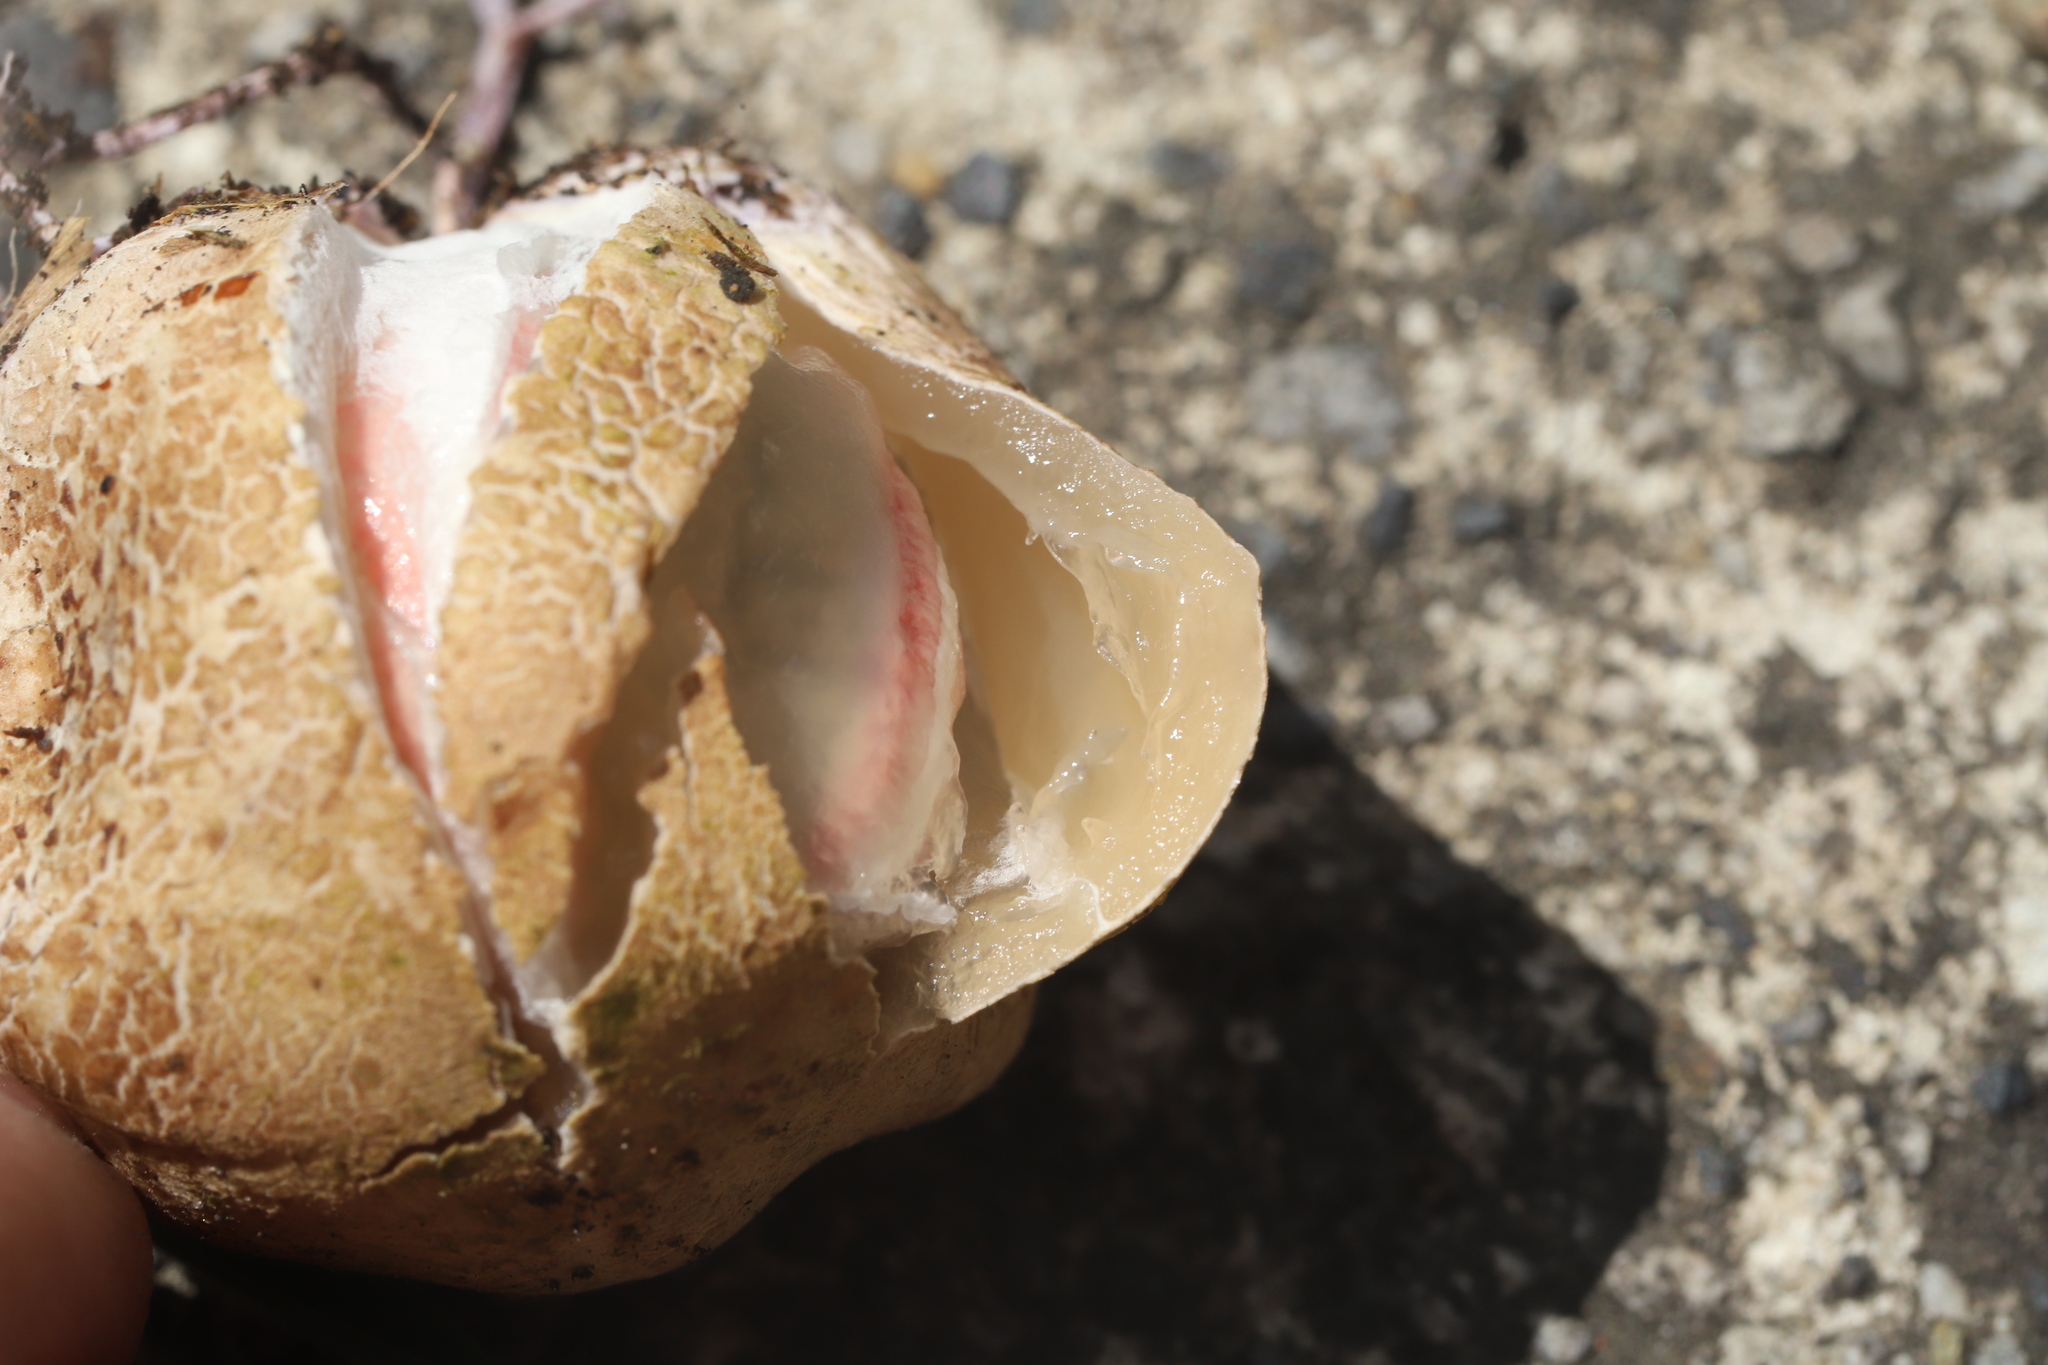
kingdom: Fungi
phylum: Basidiomycota
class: Agaricomycetes
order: Phallales
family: Phallaceae
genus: Clathrus
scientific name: Clathrus archeri
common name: Devil's fingers
